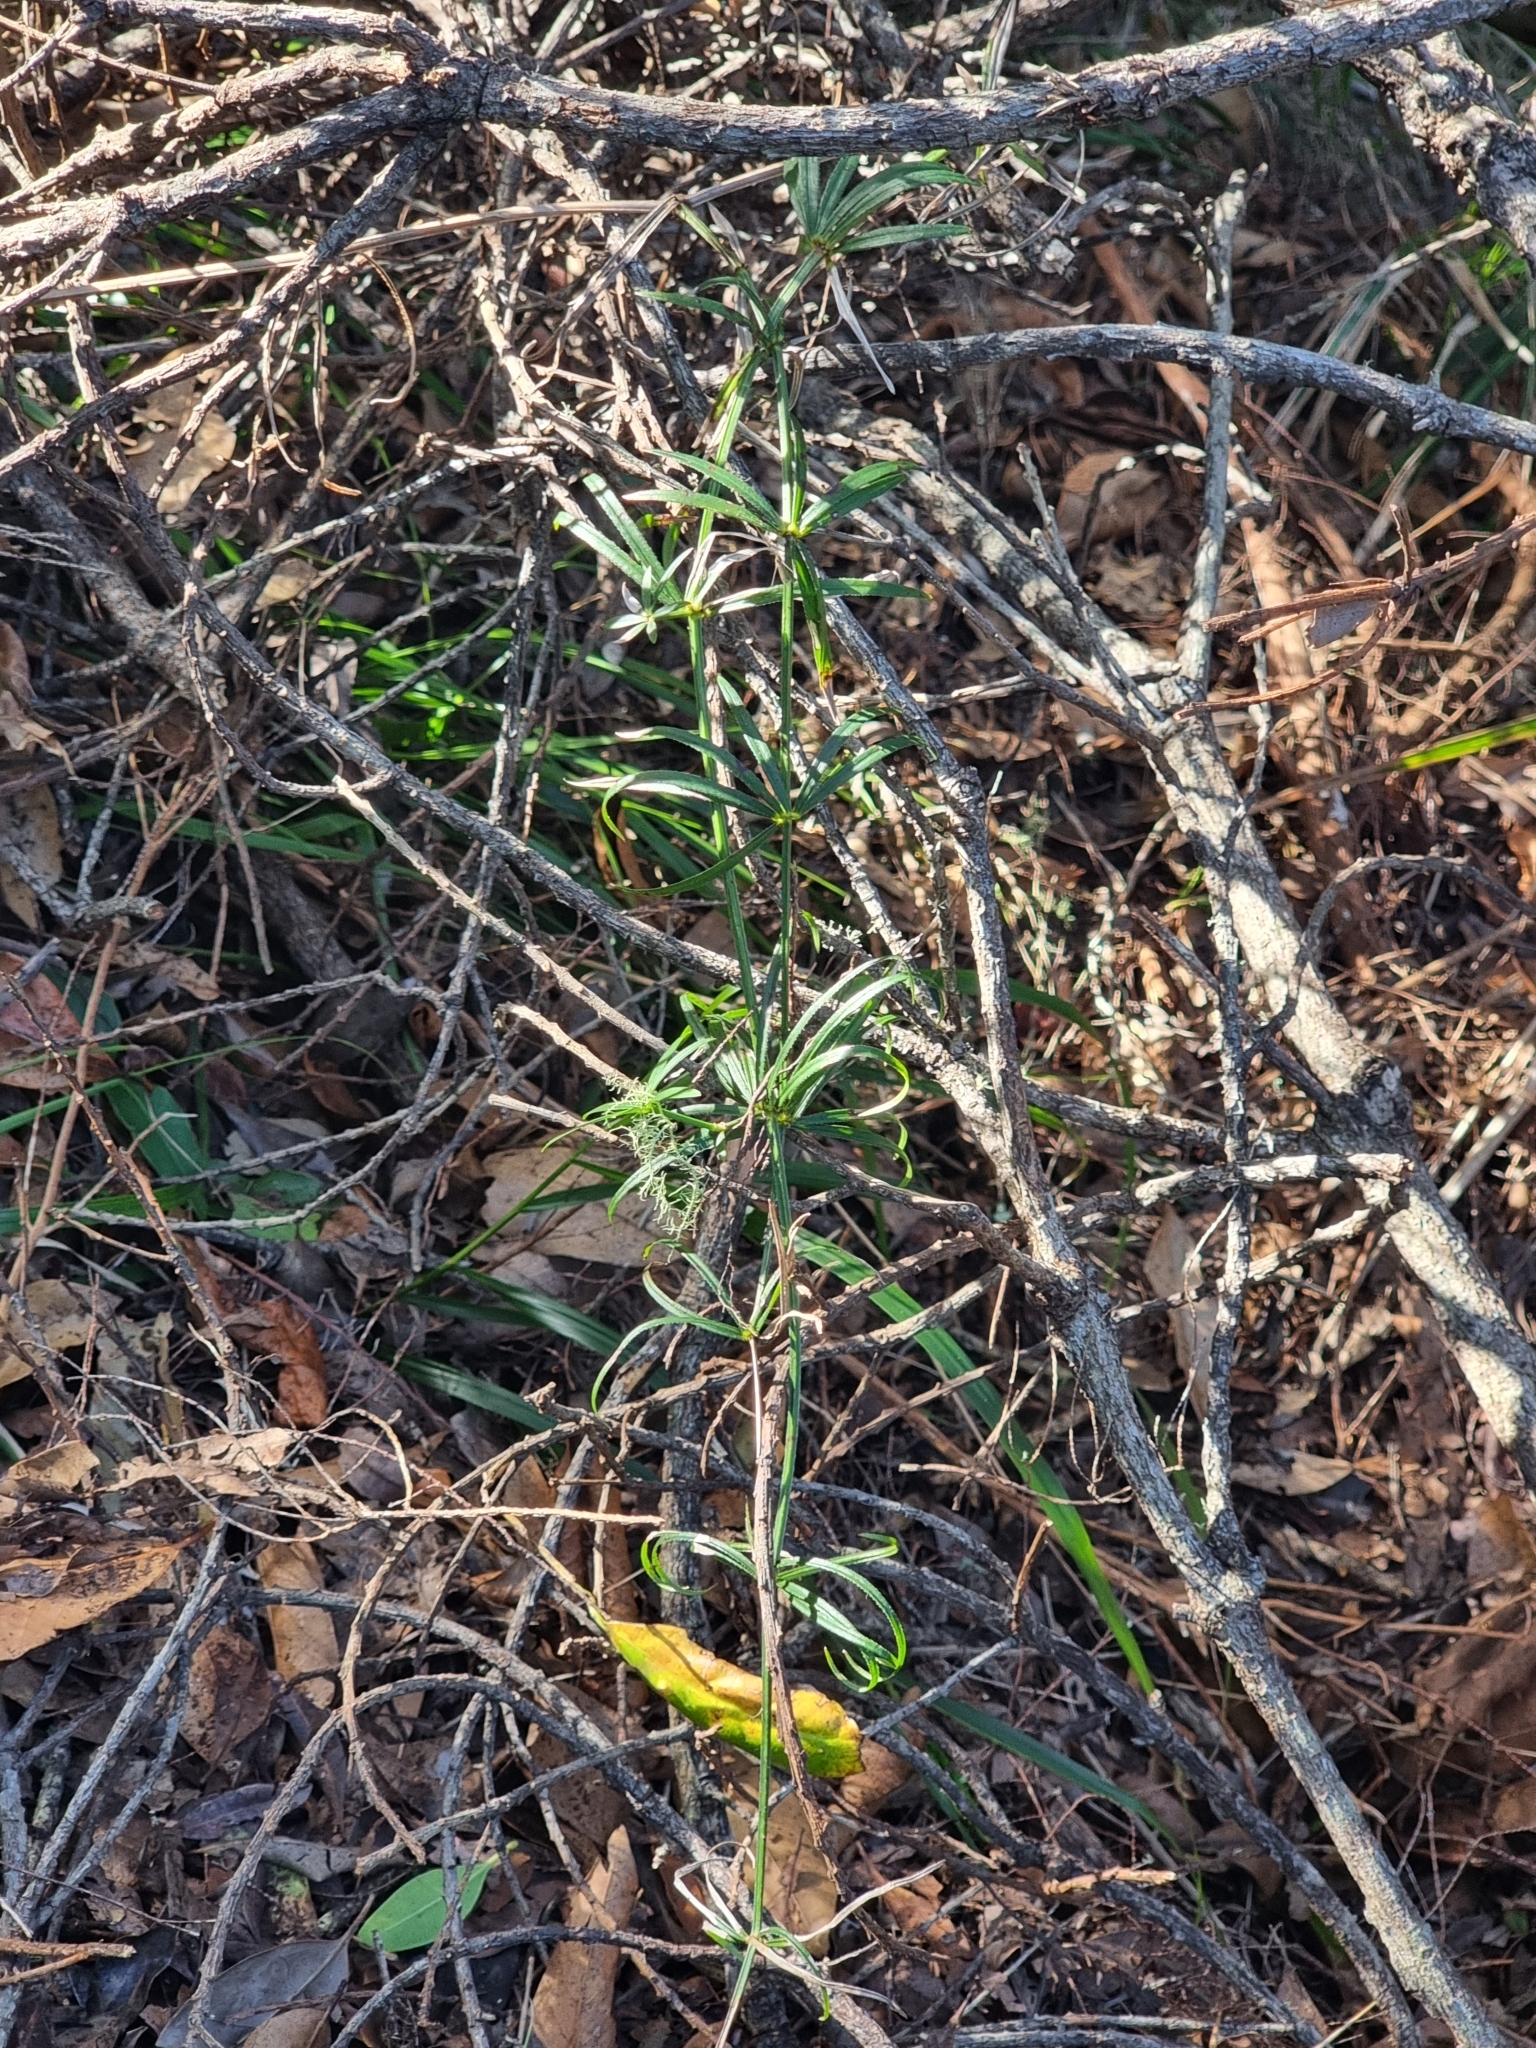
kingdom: Plantae
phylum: Tracheophyta
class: Magnoliopsida
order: Gentianales
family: Rubiaceae
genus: Rubia
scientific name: Rubia occidens
